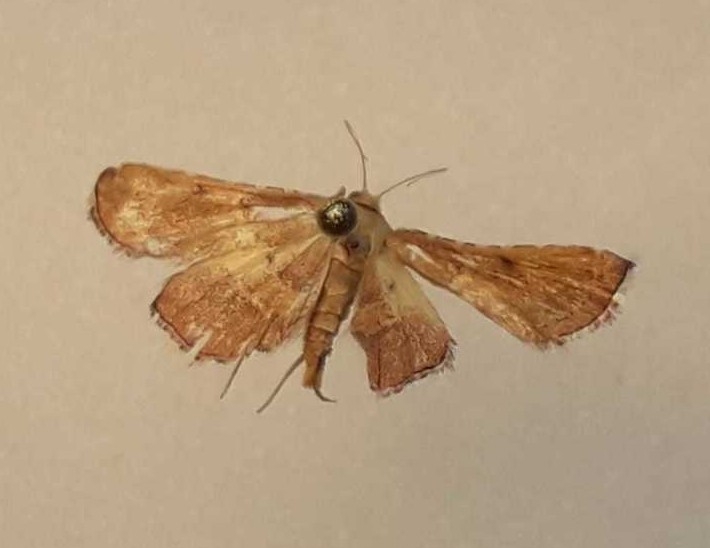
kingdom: Animalia
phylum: Arthropoda
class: Insecta
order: Lepidoptera
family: Pyralidae
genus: Endotricha
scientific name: Endotricha flammealis
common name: Rosy tabby
